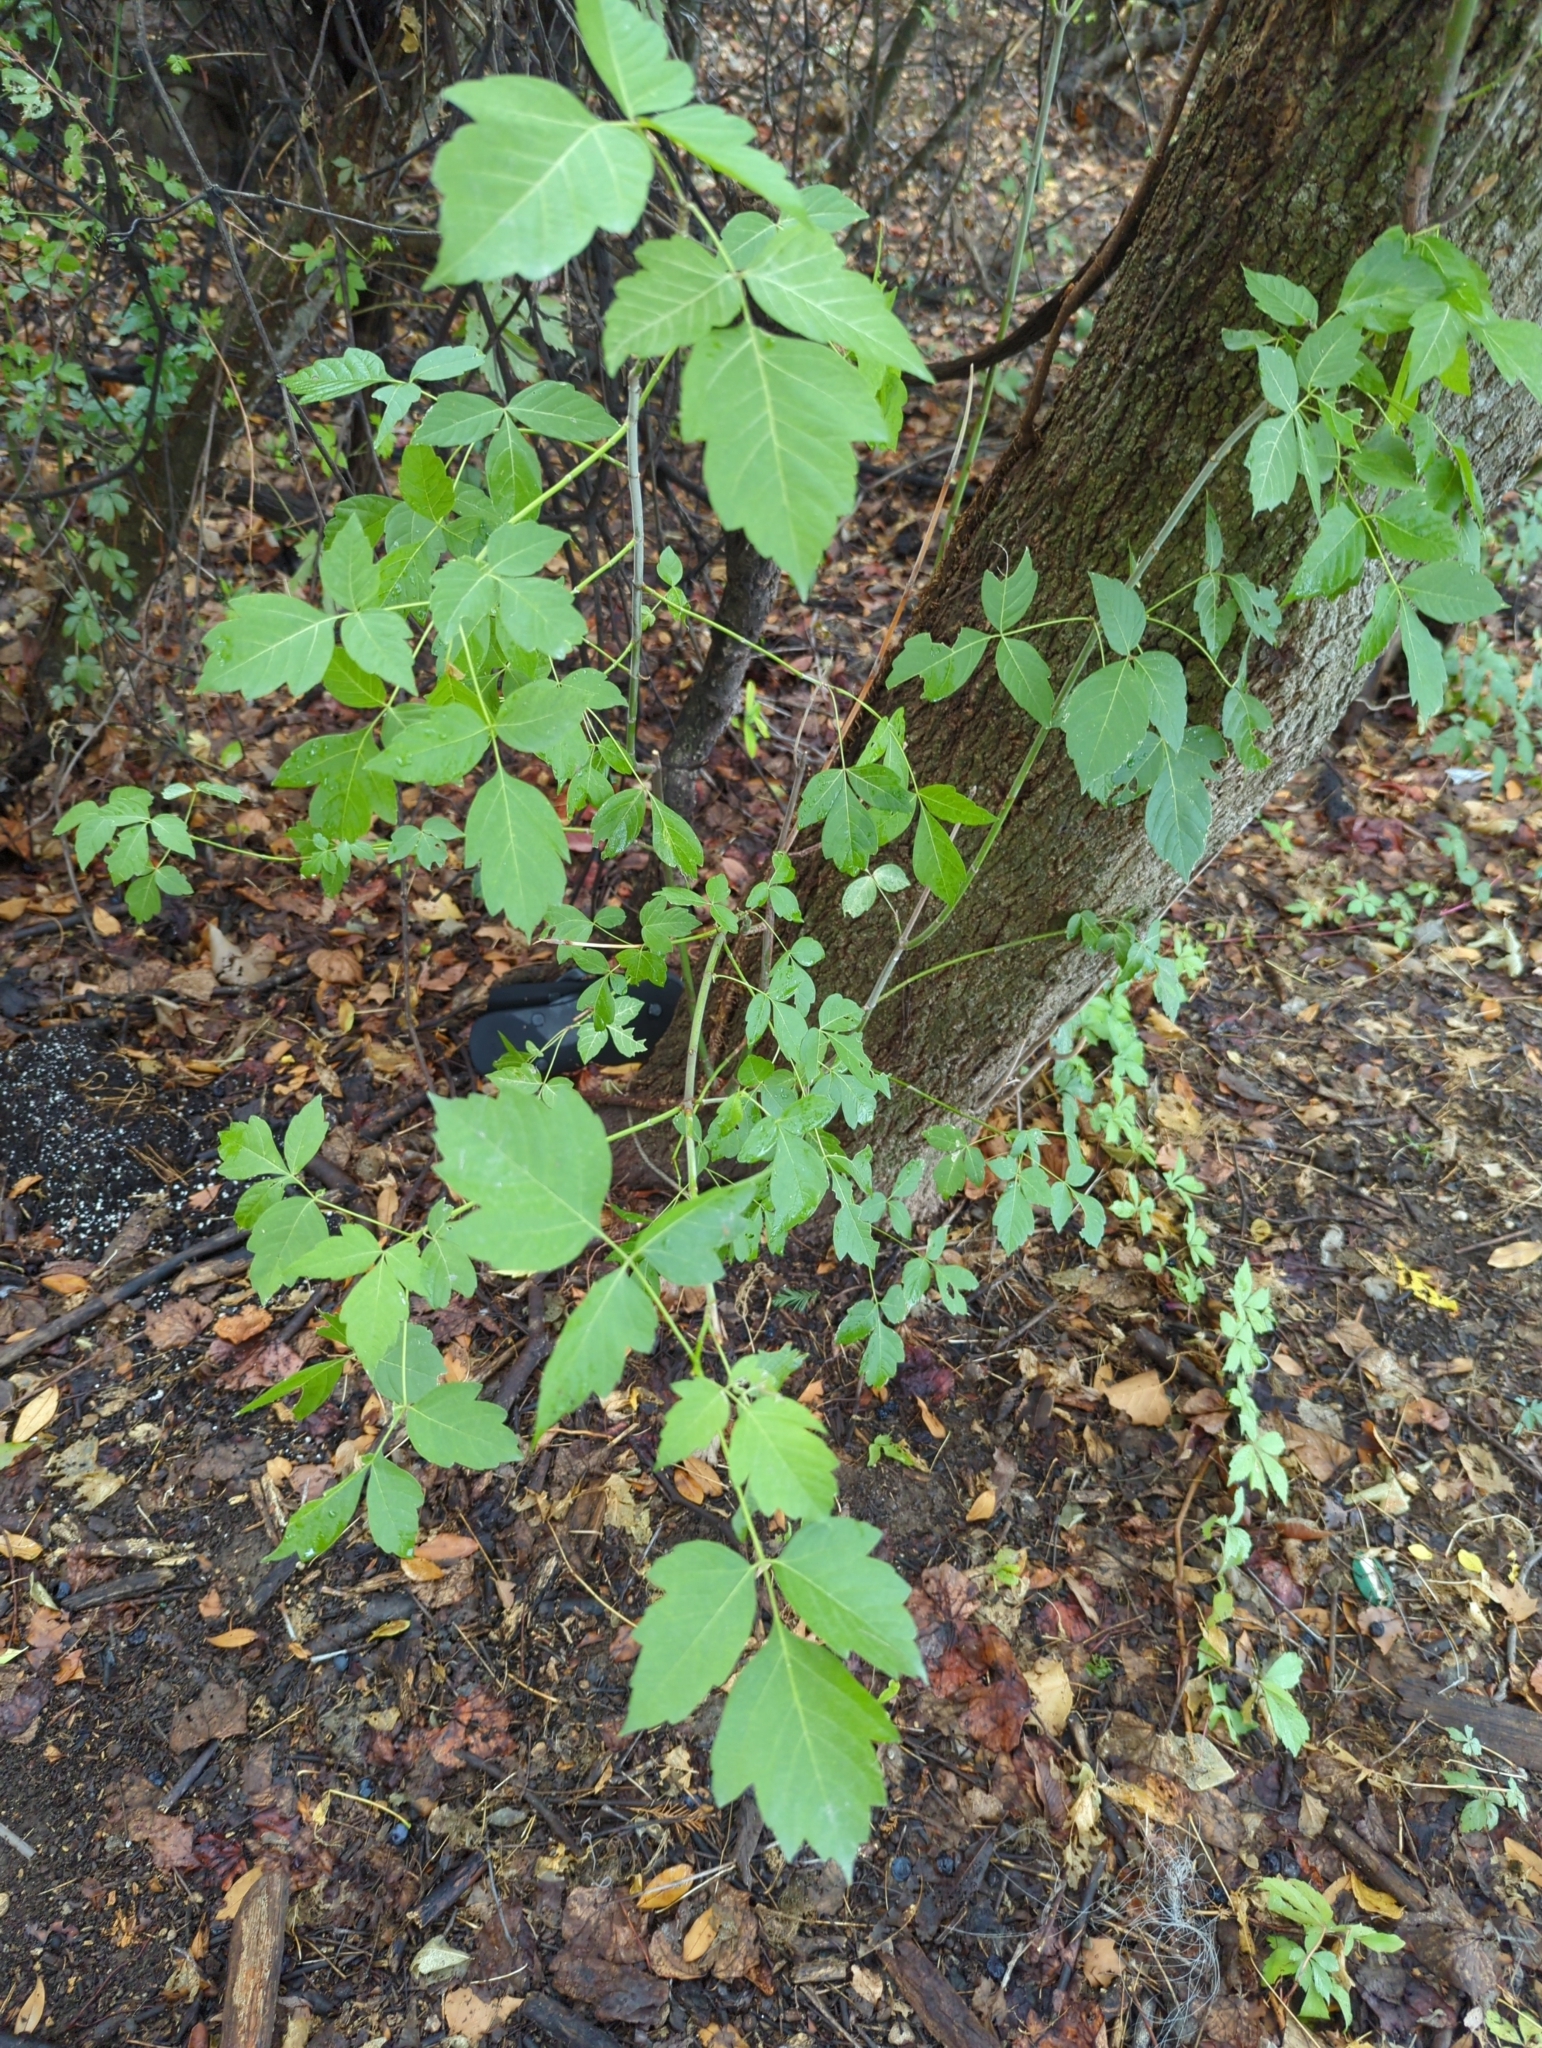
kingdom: Plantae
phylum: Tracheophyta
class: Magnoliopsida
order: Sapindales
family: Sapindaceae
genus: Acer
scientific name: Acer negundo
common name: Ashleaf maple
